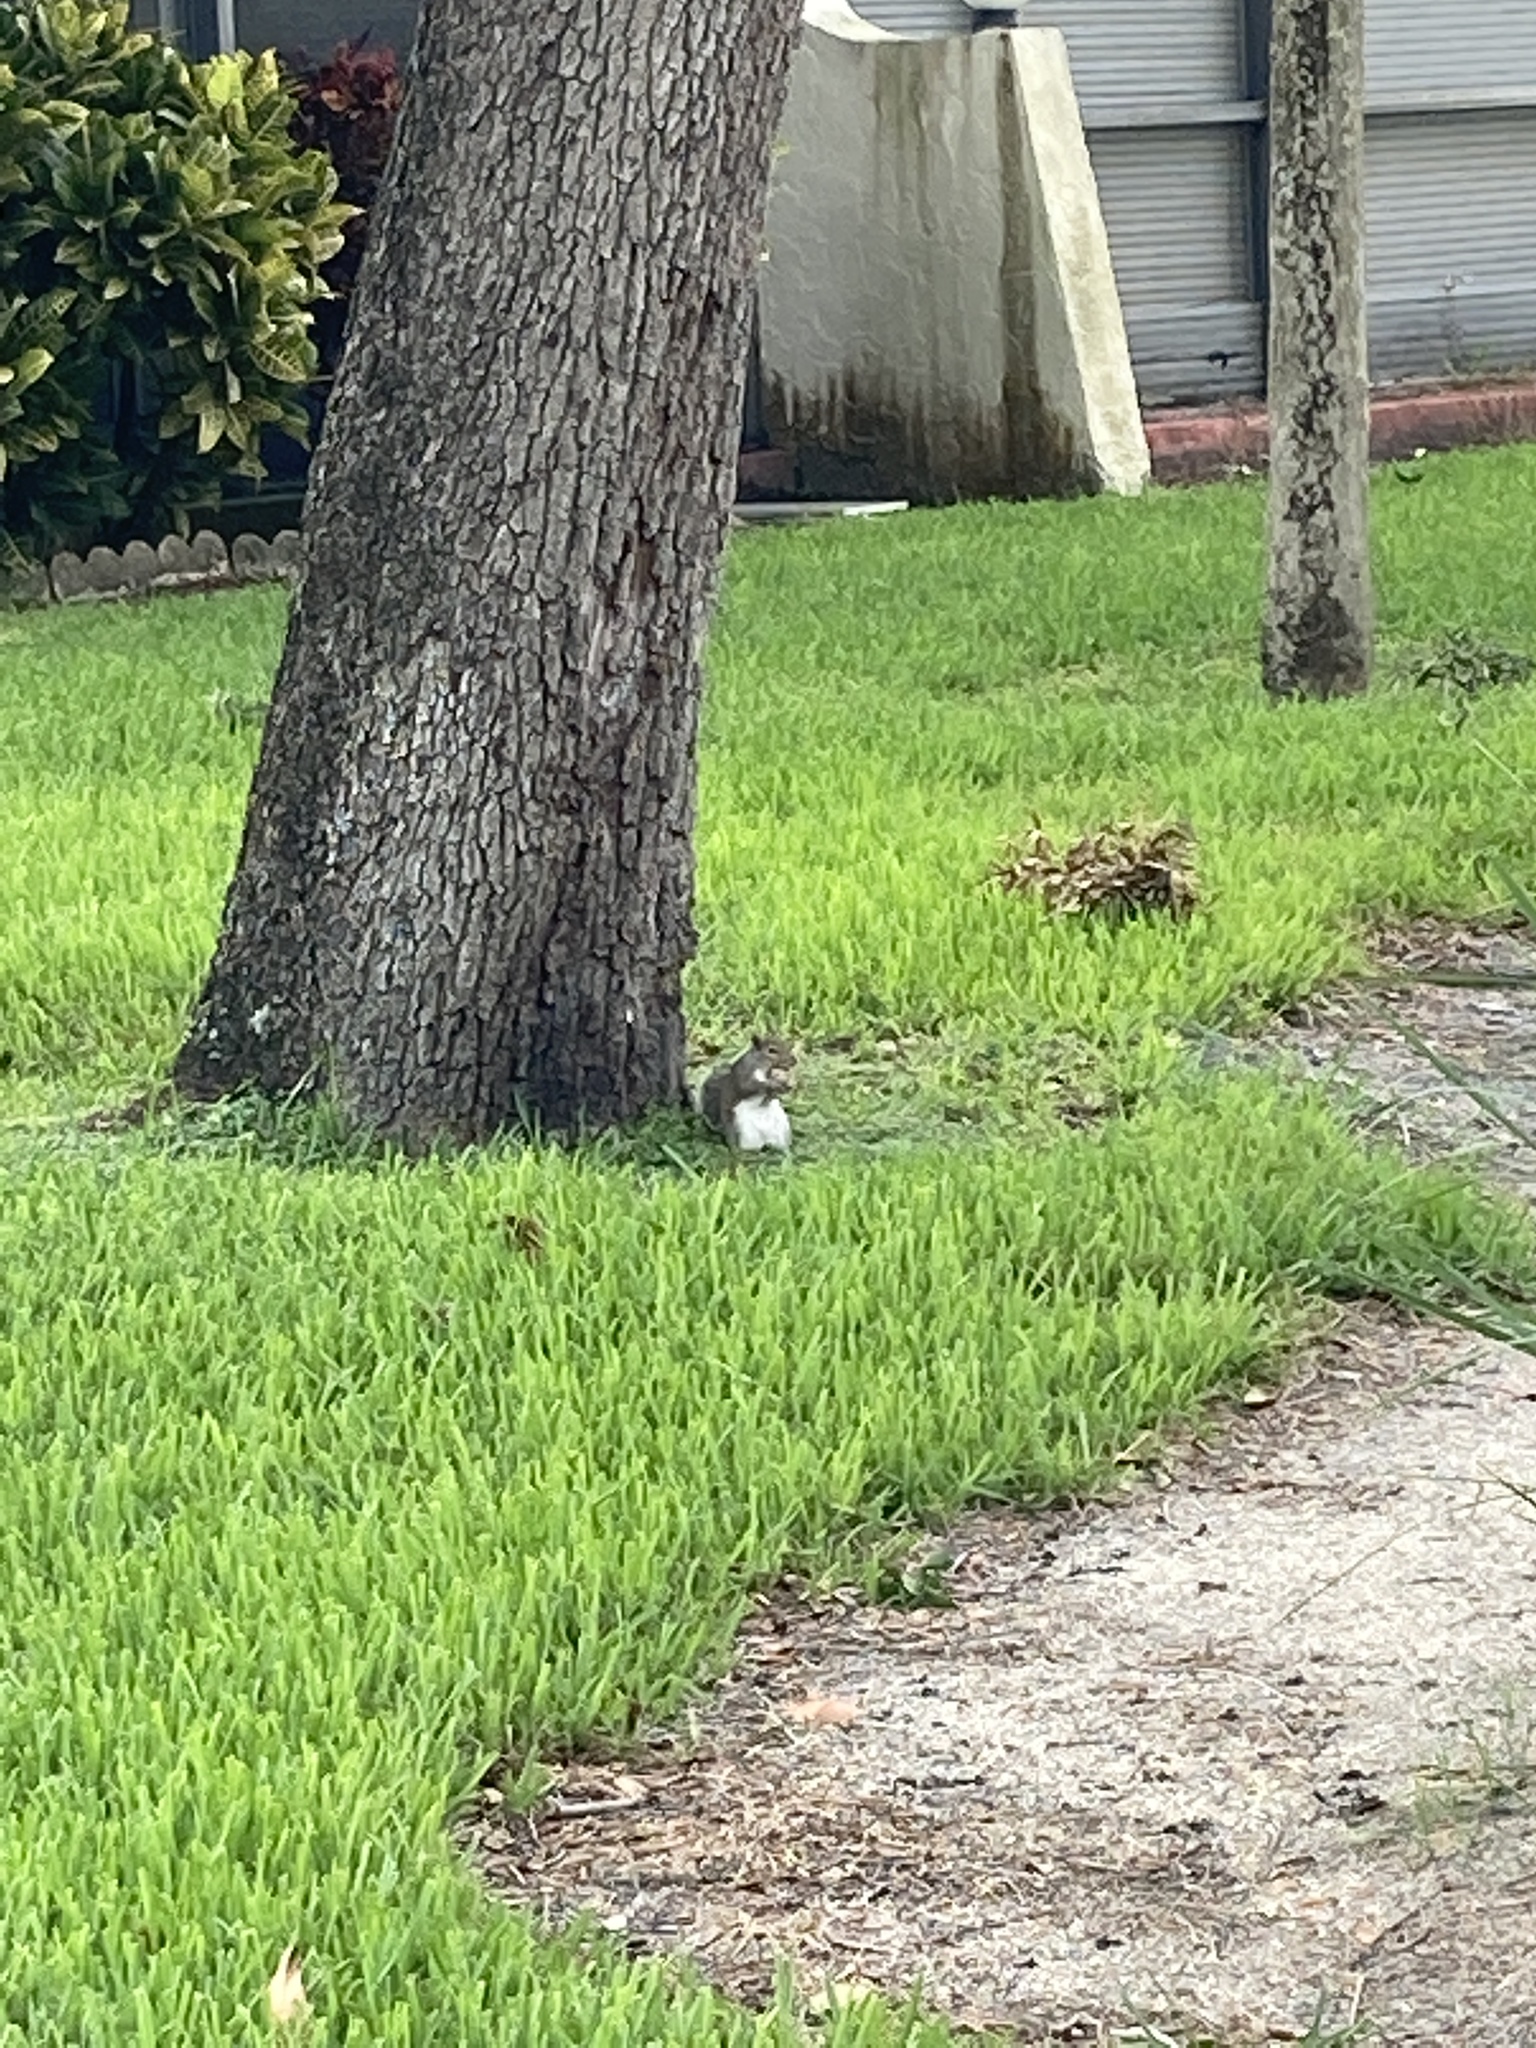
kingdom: Animalia
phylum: Chordata
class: Mammalia
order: Rodentia
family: Sciuridae
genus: Sciurus
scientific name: Sciurus carolinensis
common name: Eastern gray squirrel
